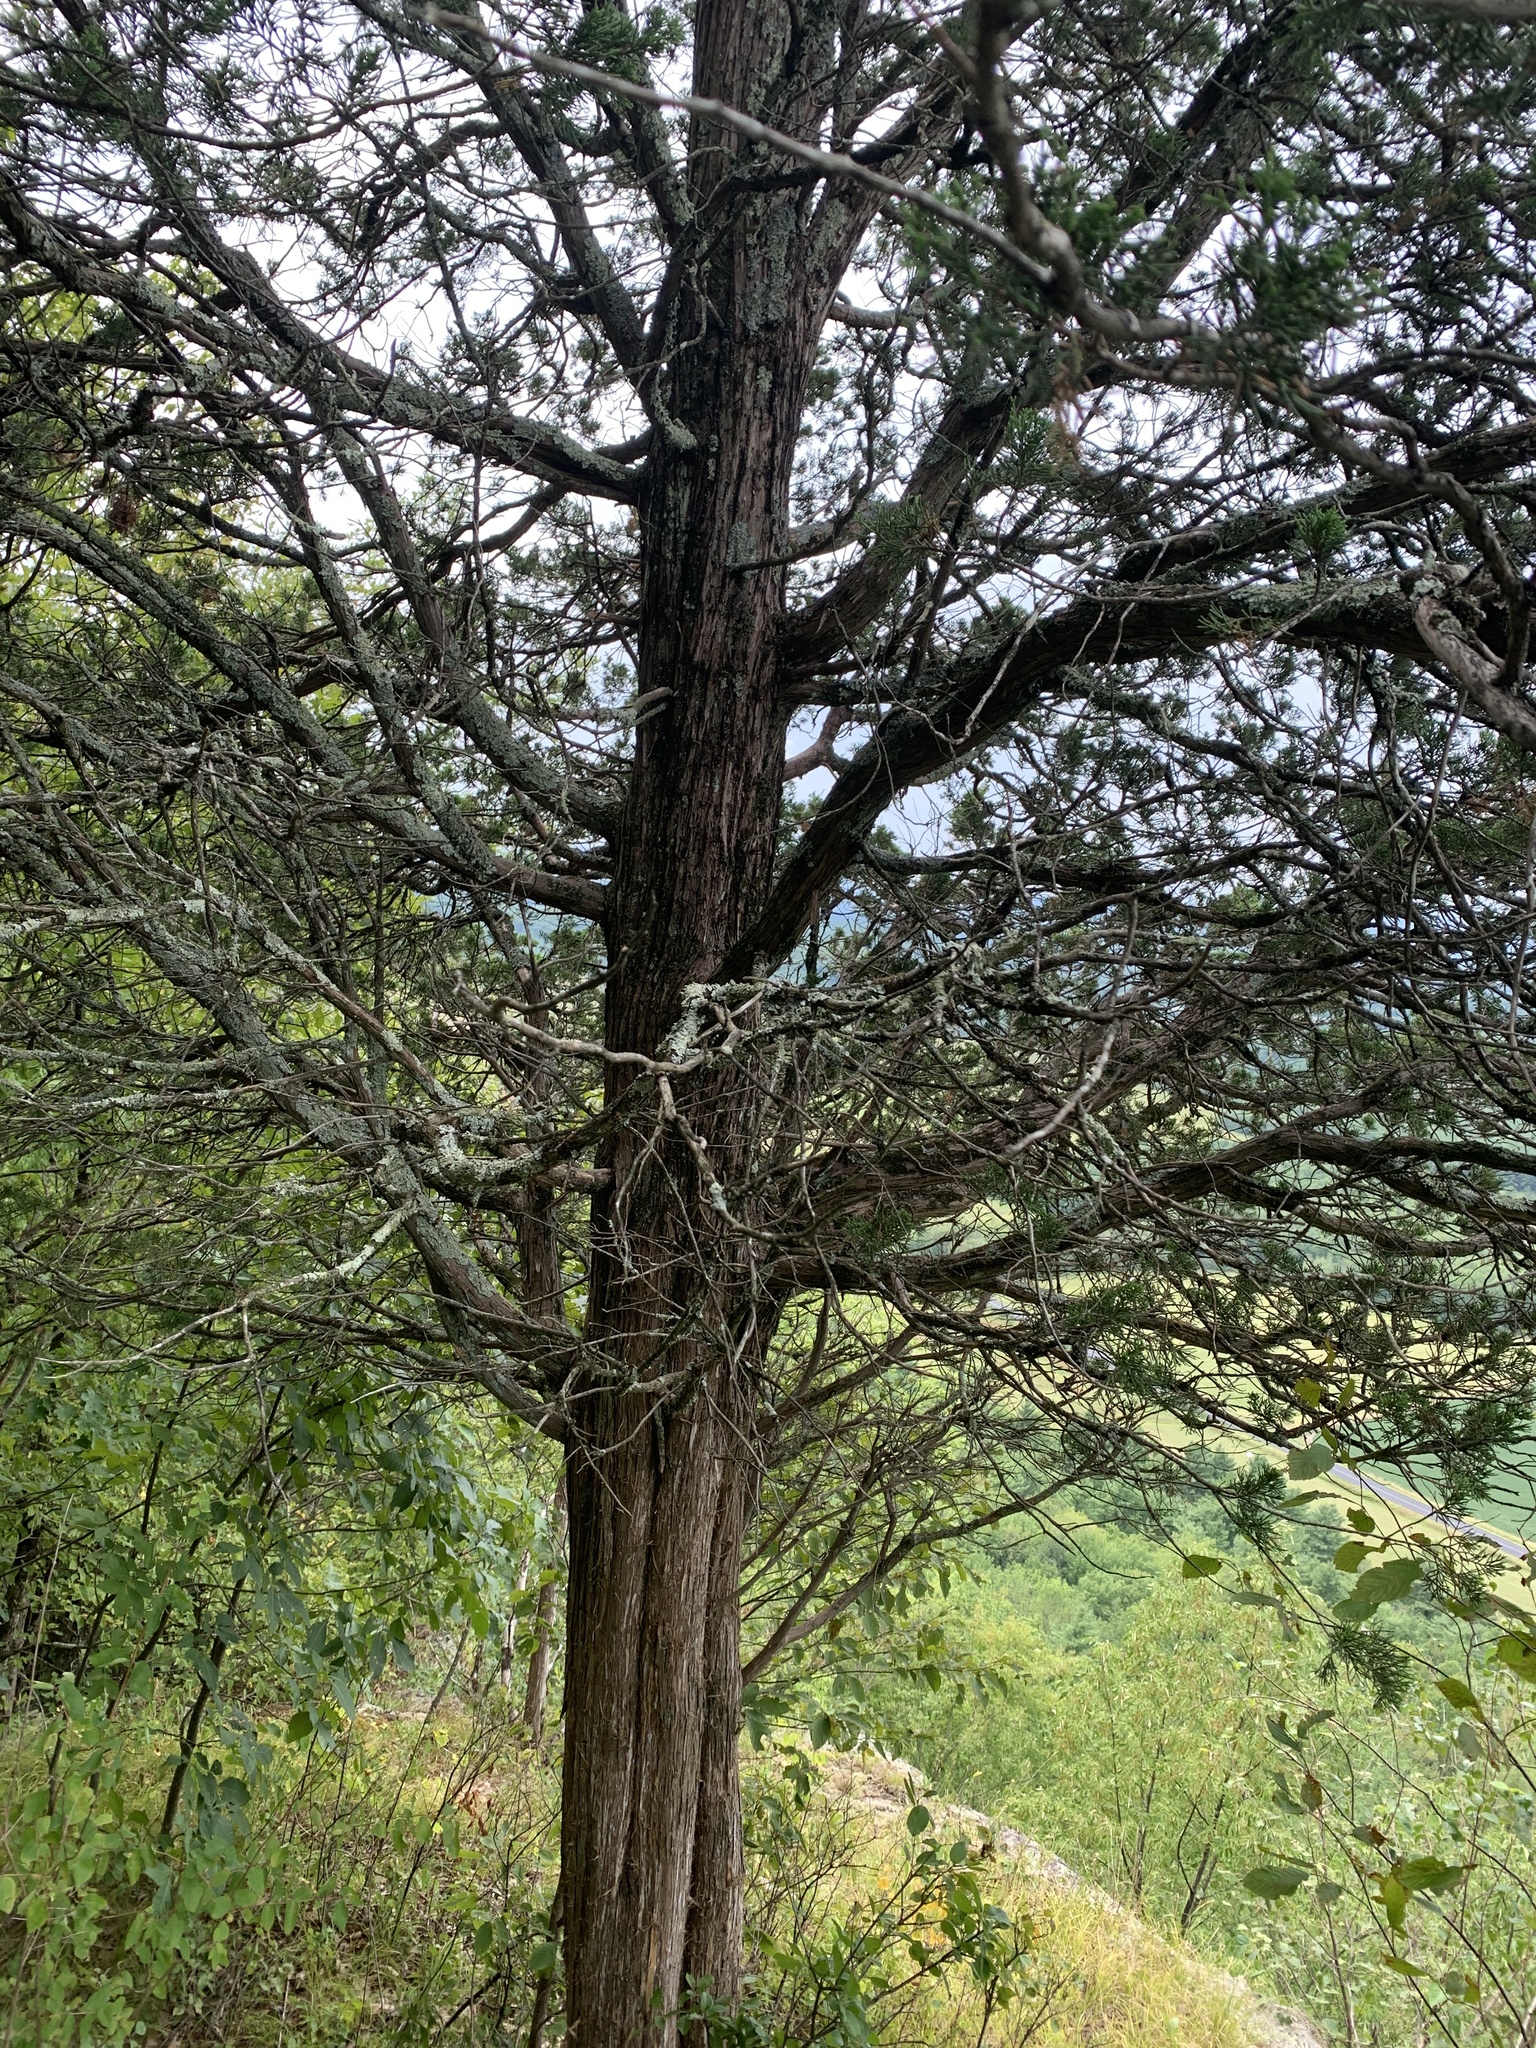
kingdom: Plantae
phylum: Tracheophyta
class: Pinopsida
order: Pinales
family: Cupressaceae
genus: Juniperus
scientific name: Juniperus virginiana
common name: Red juniper
